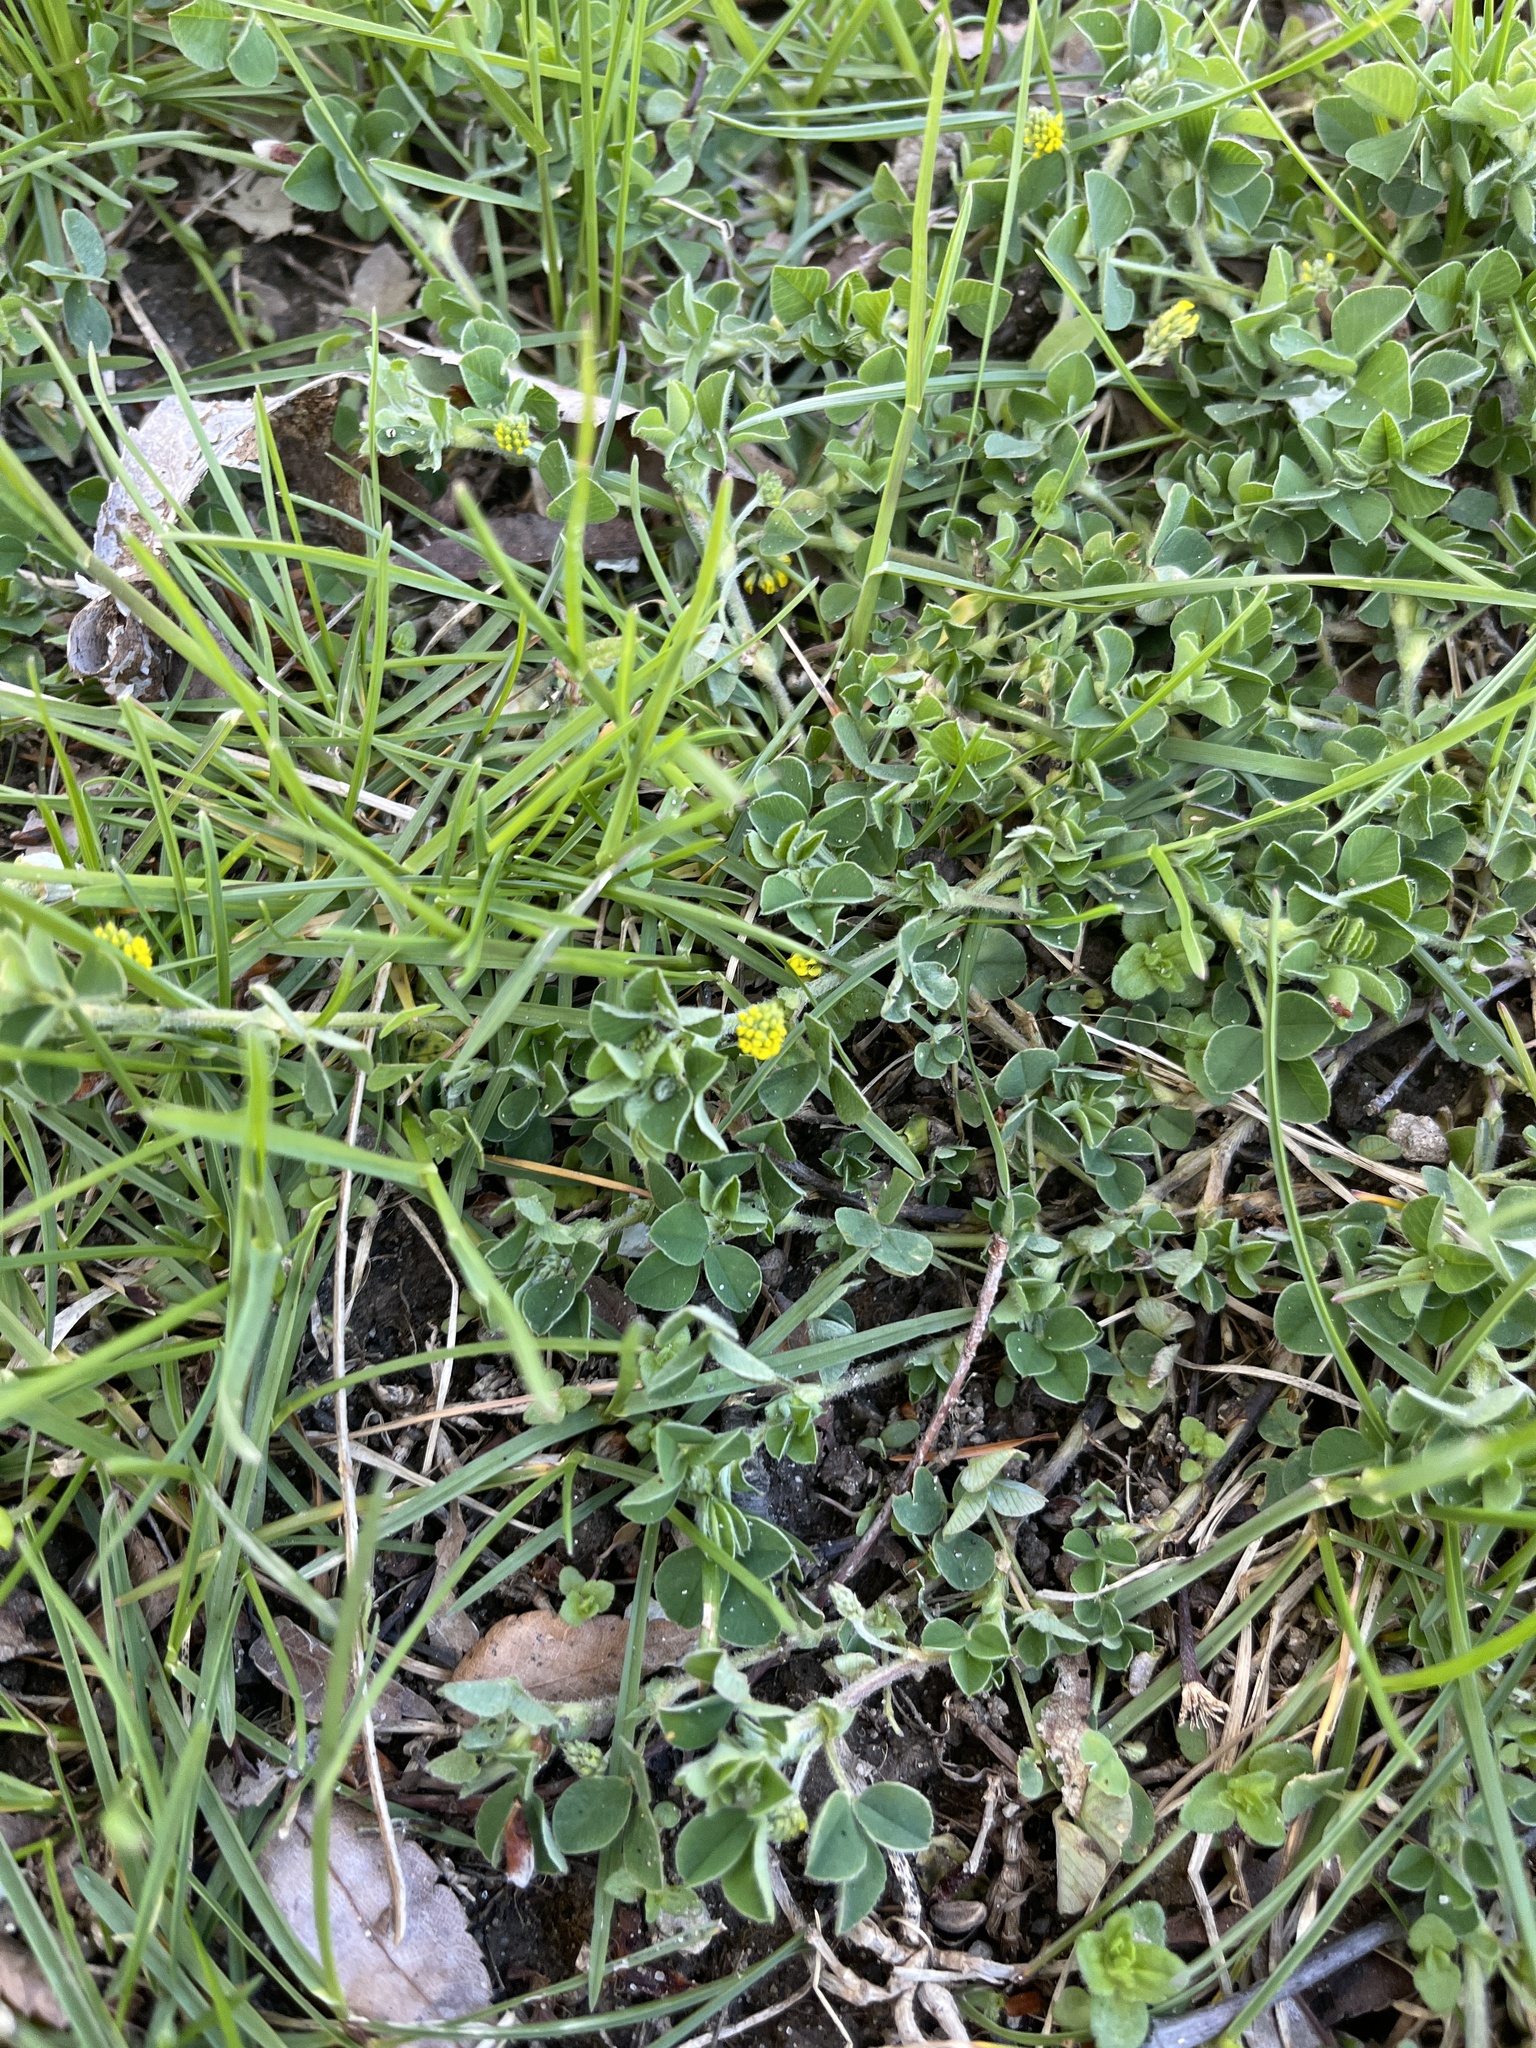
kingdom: Plantae
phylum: Tracheophyta
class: Magnoliopsida
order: Fabales
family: Fabaceae
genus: Medicago
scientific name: Medicago lupulina
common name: Black medick
